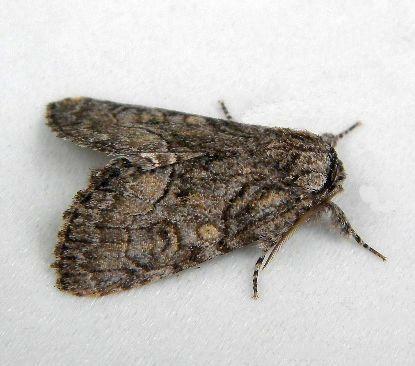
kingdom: Animalia
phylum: Arthropoda
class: Insecta
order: Lepidoptera
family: Noctuidae
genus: Raphia
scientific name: Raphia frater
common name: Brother
